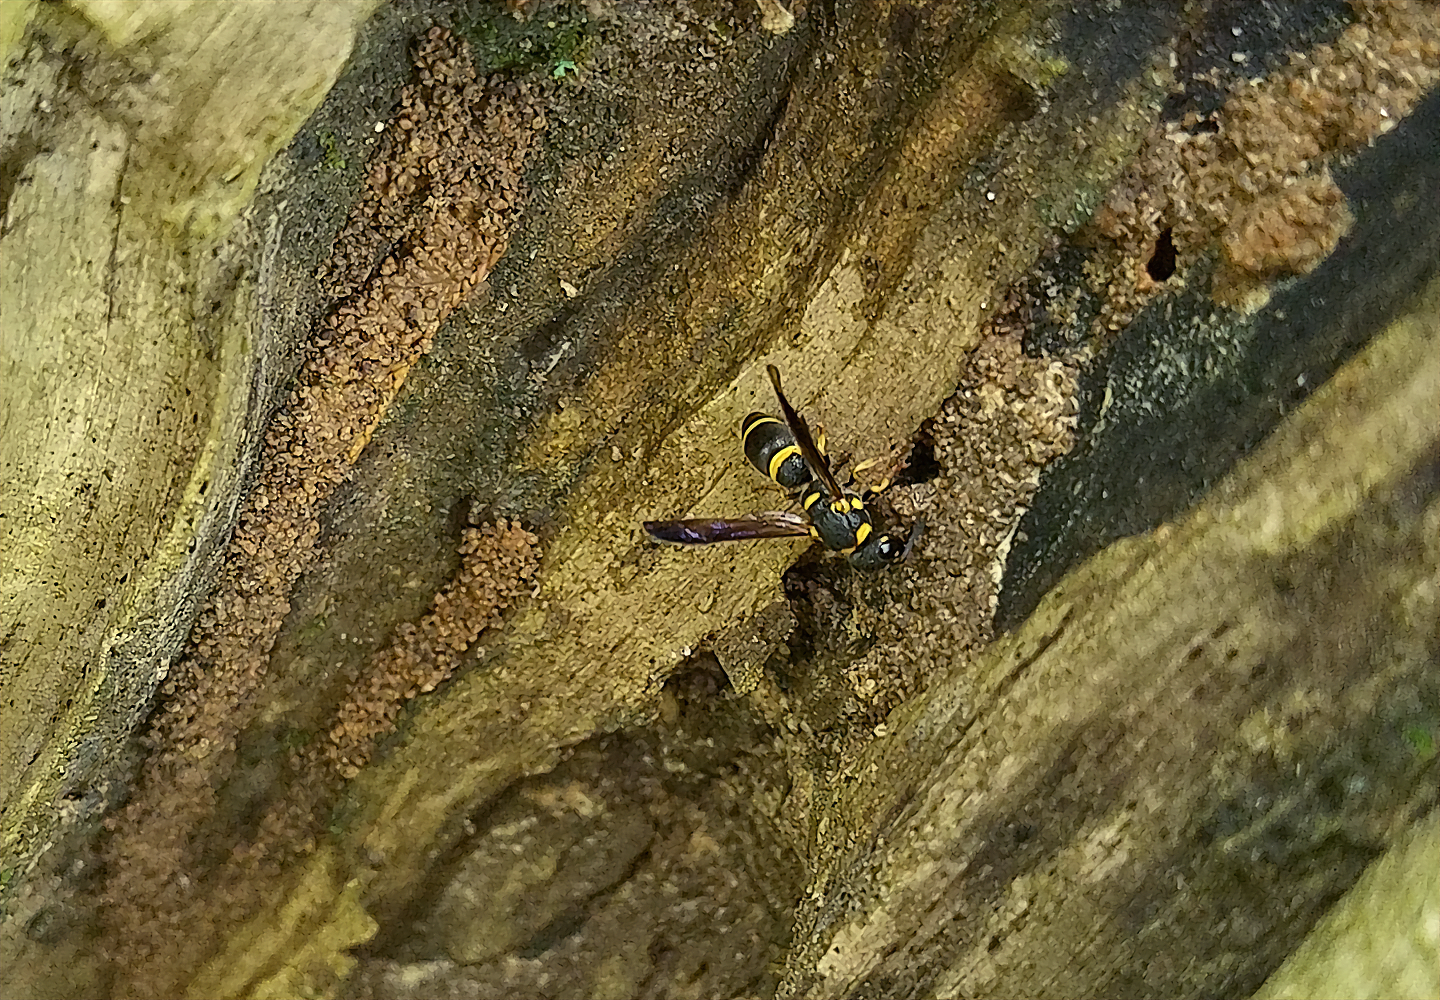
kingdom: Animalia
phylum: Arthropoda
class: Insecta
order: Hymenoptera
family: Eumenidae
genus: Parancistrocerus
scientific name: Parancistrocerus perennis
